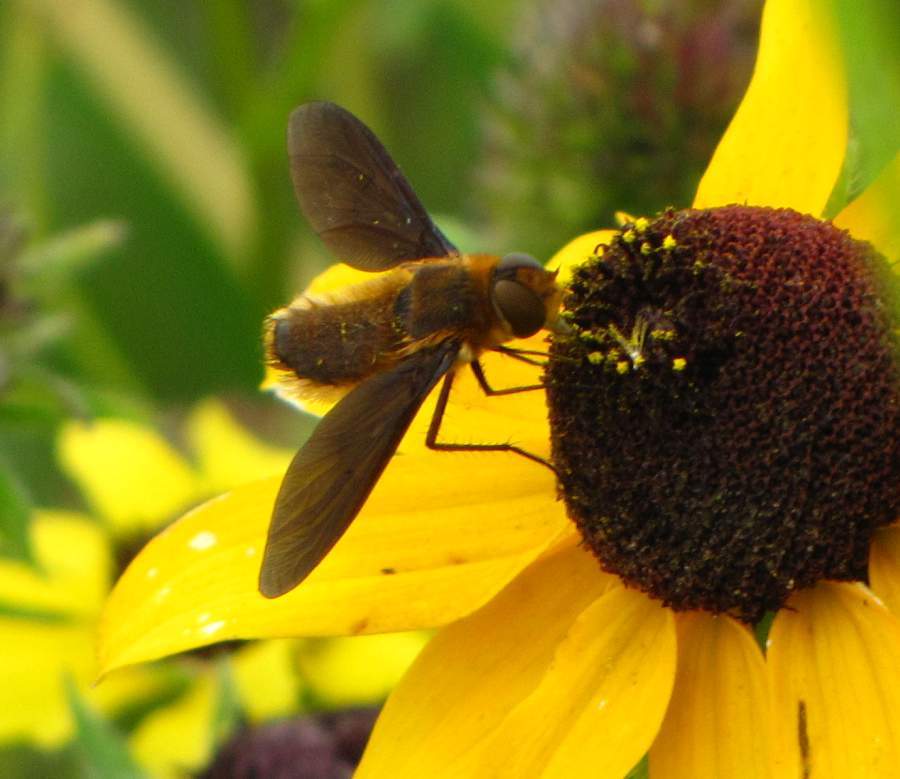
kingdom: Animalia
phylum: Arthropoda
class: Insecta
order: Diptera
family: Bombyliidae
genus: Poecilanthrax
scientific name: Poecilanthrax tegminipennis
